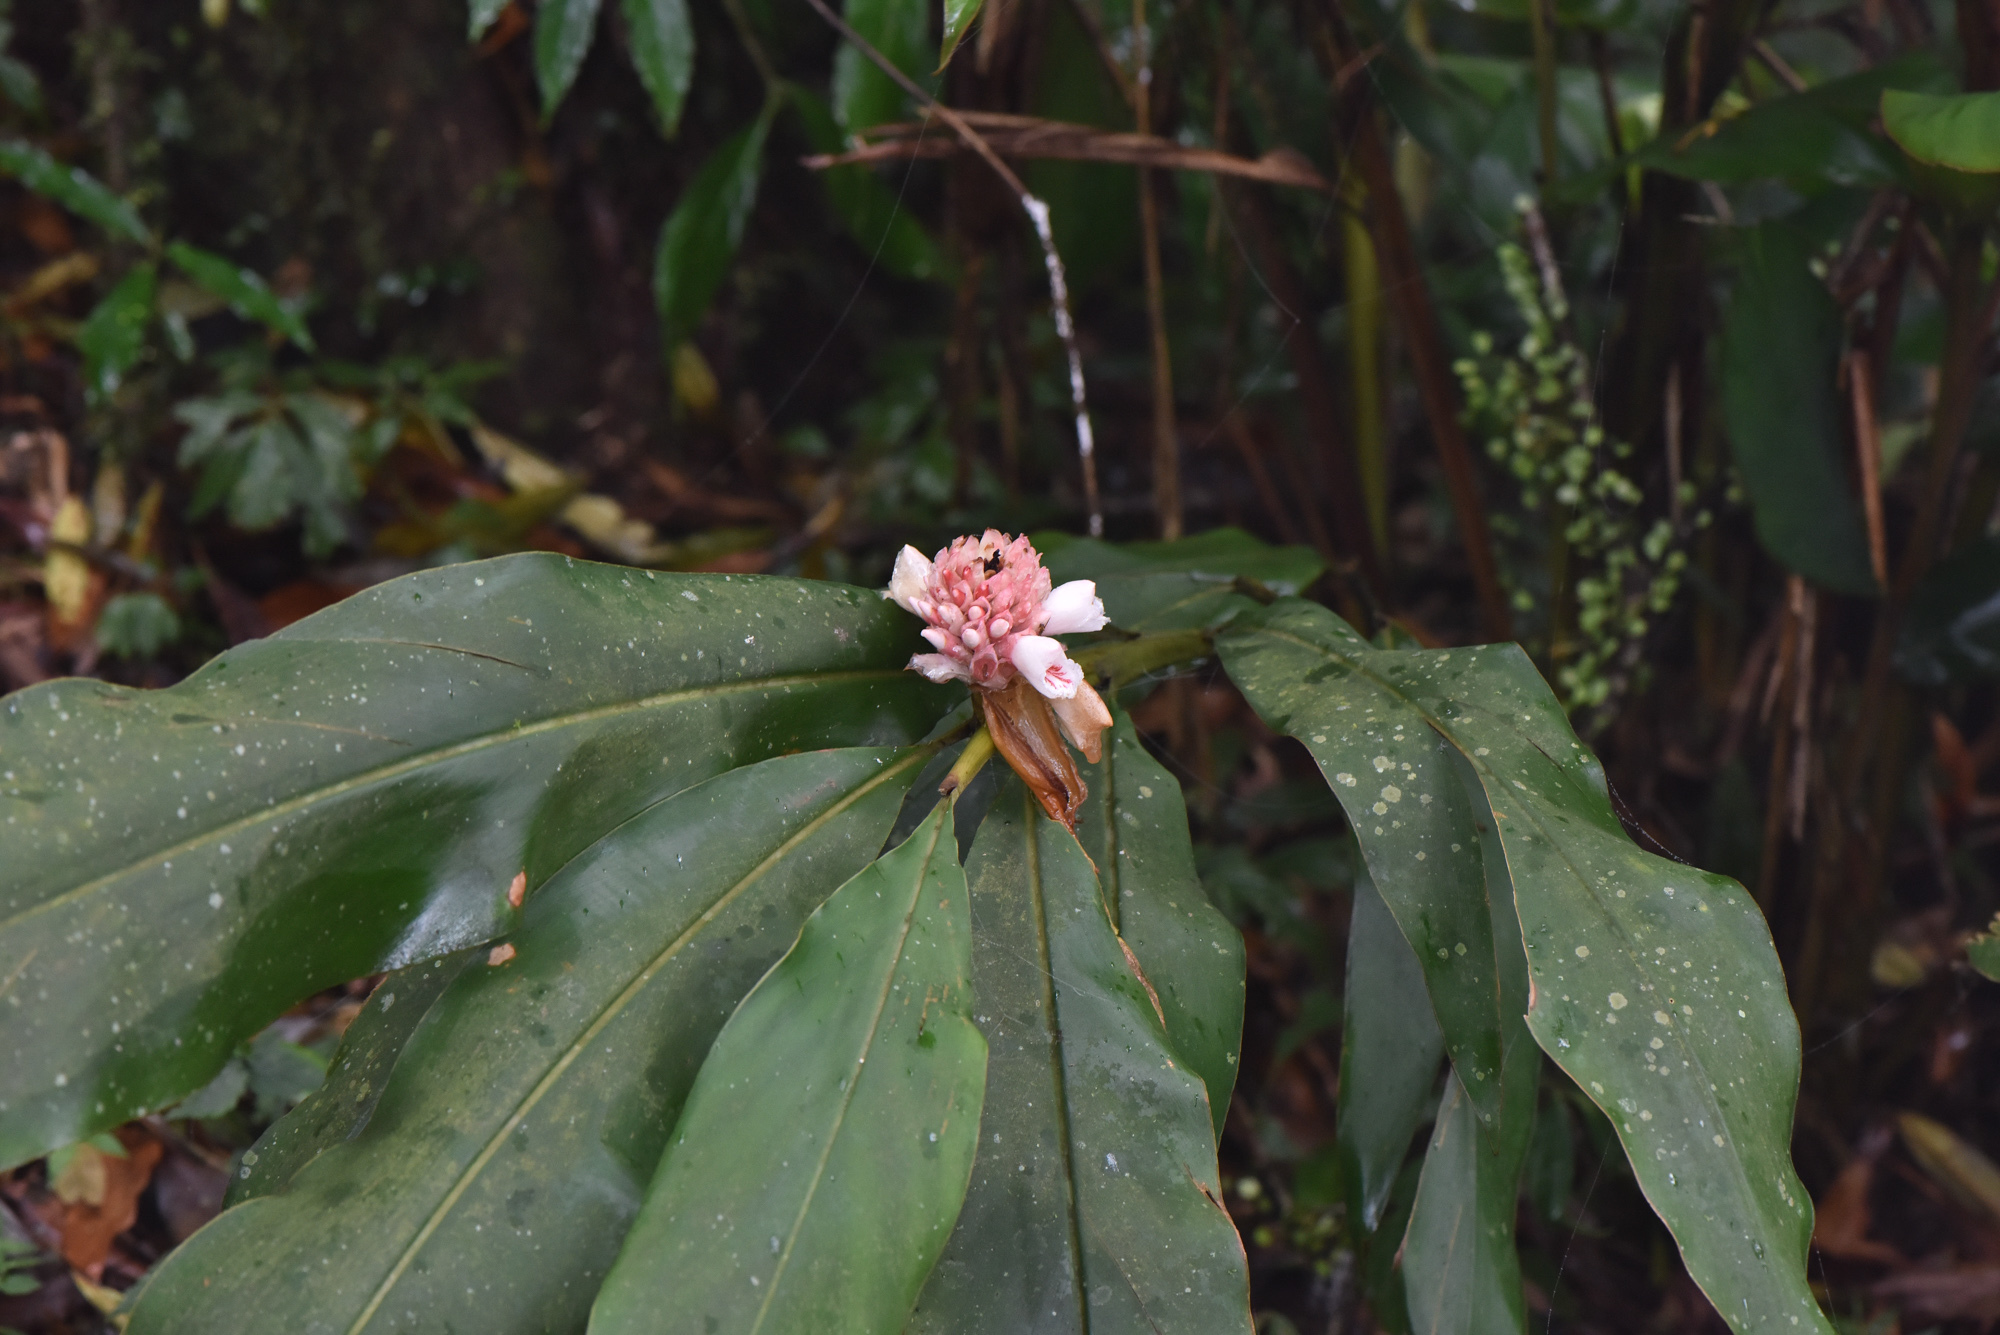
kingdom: Plantae
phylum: Tracheophyta
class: Liliopsida
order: Zingiberales
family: Zingiberaceae
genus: Alpinia
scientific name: Alpinia sessiliflora
